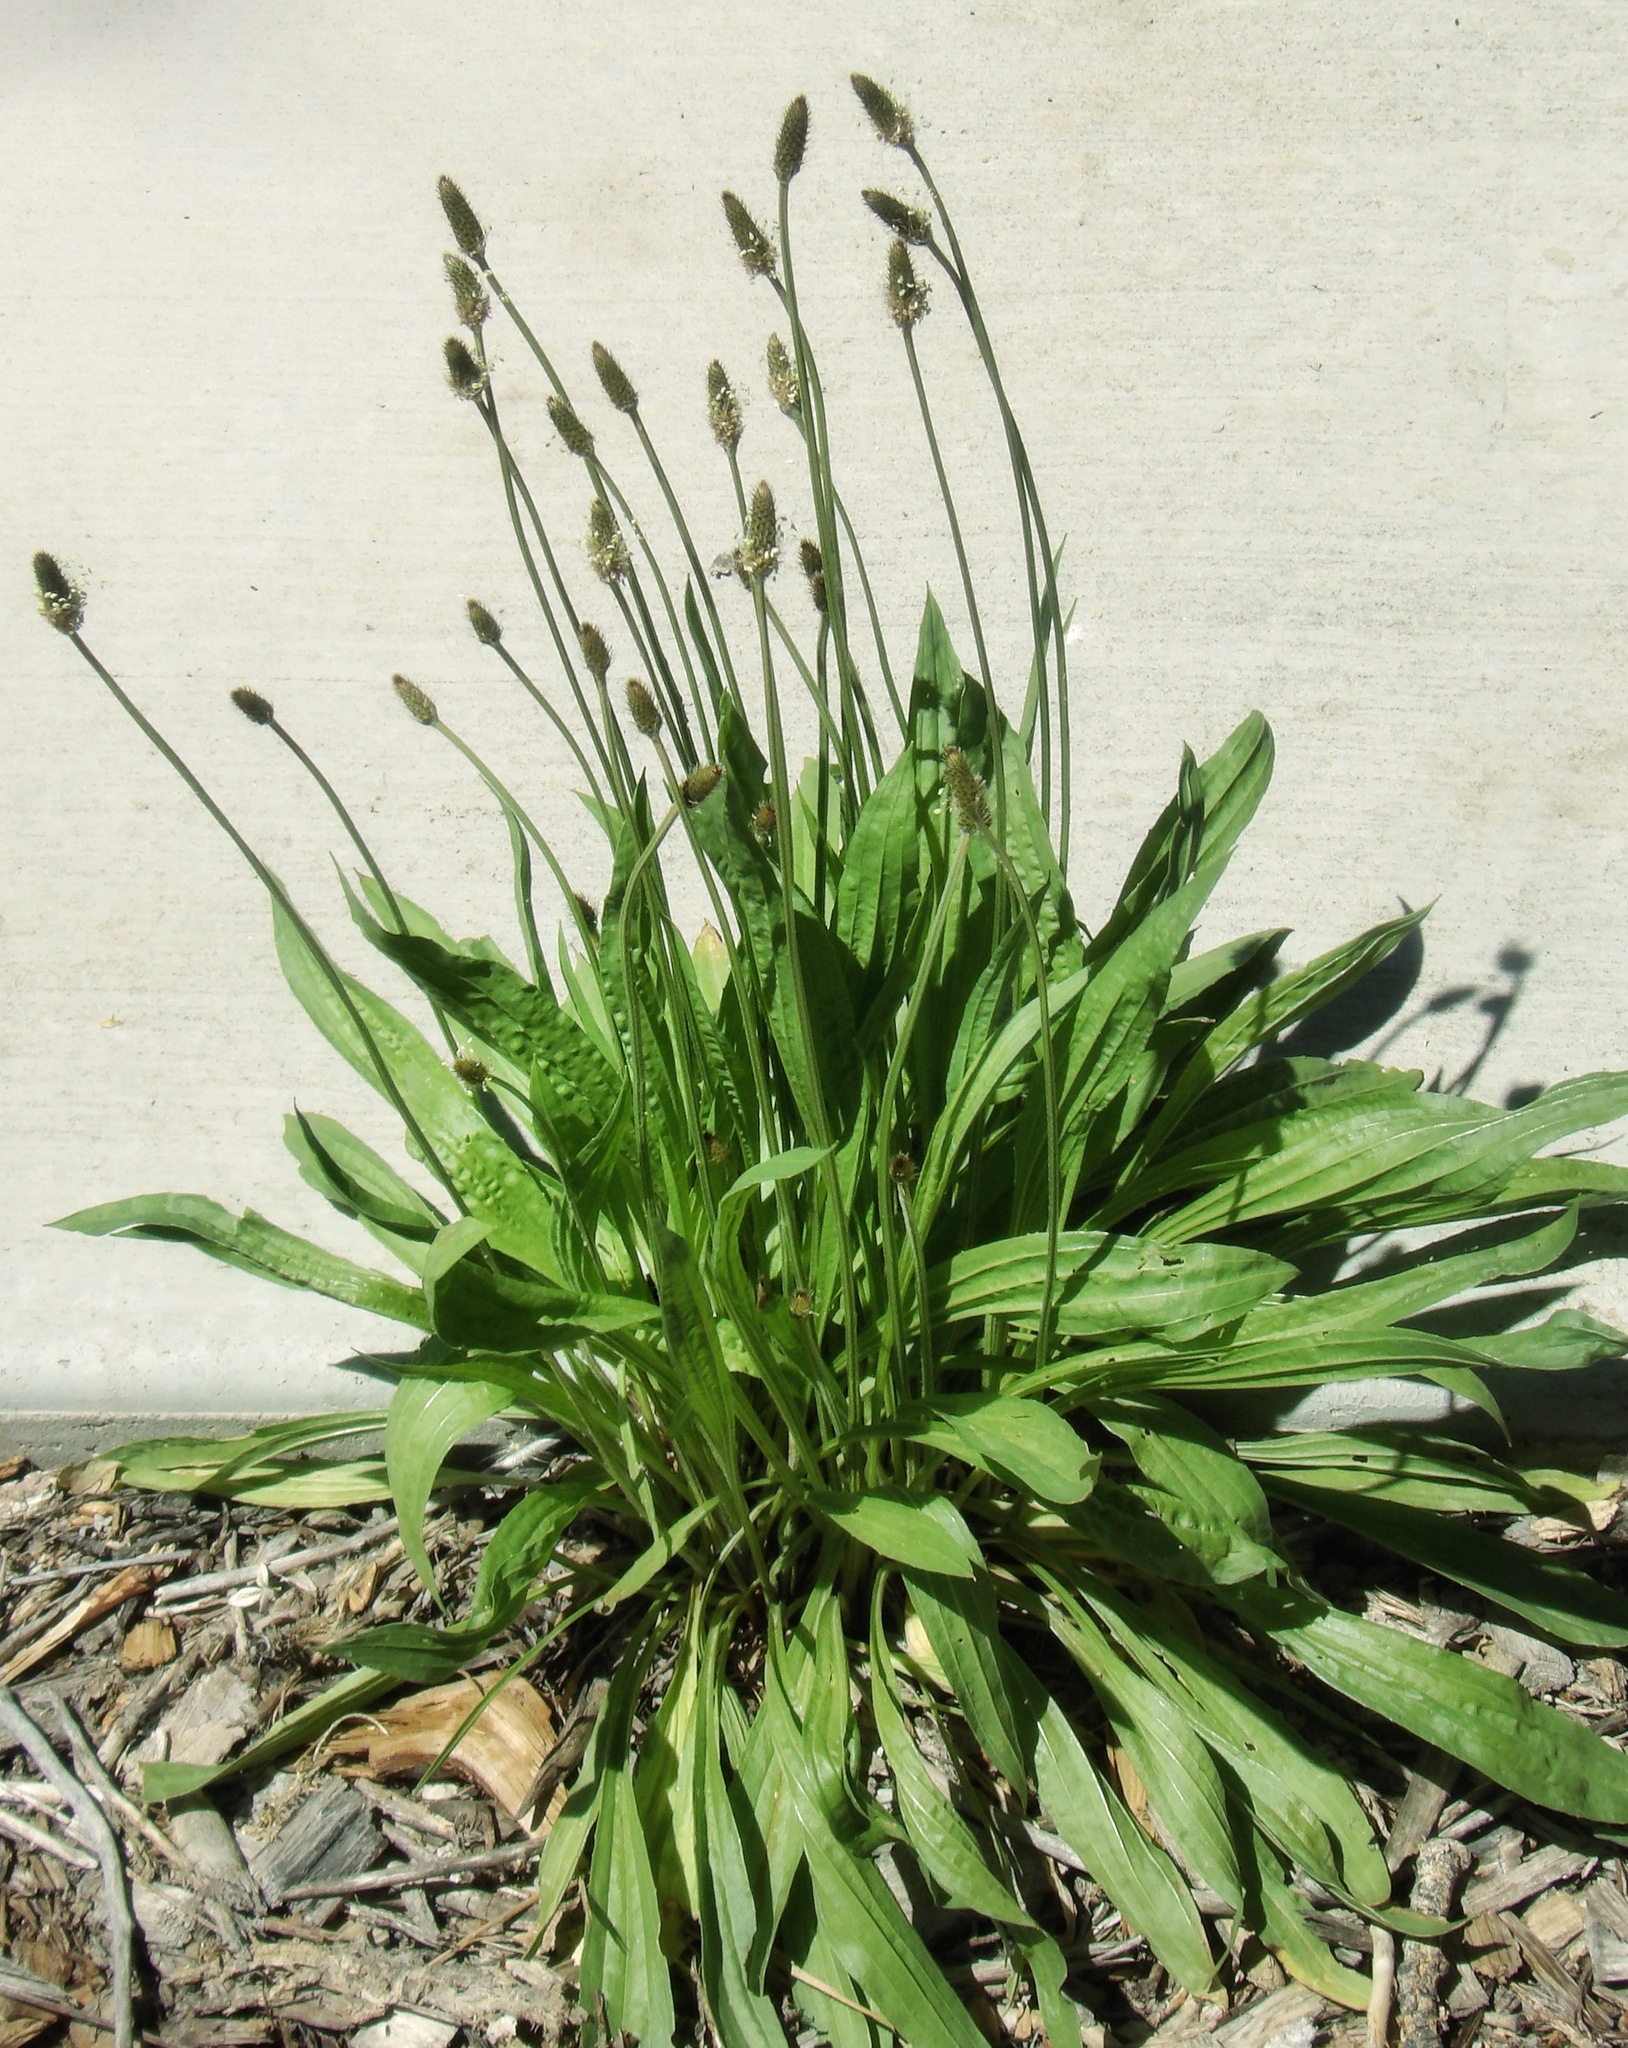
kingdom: Plantae
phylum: Tracheophyta
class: Magnoliopsida
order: Lamiales
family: Plantaginaceae
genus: Plantago
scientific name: Plantago lanceolata
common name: Ribwort plantain
